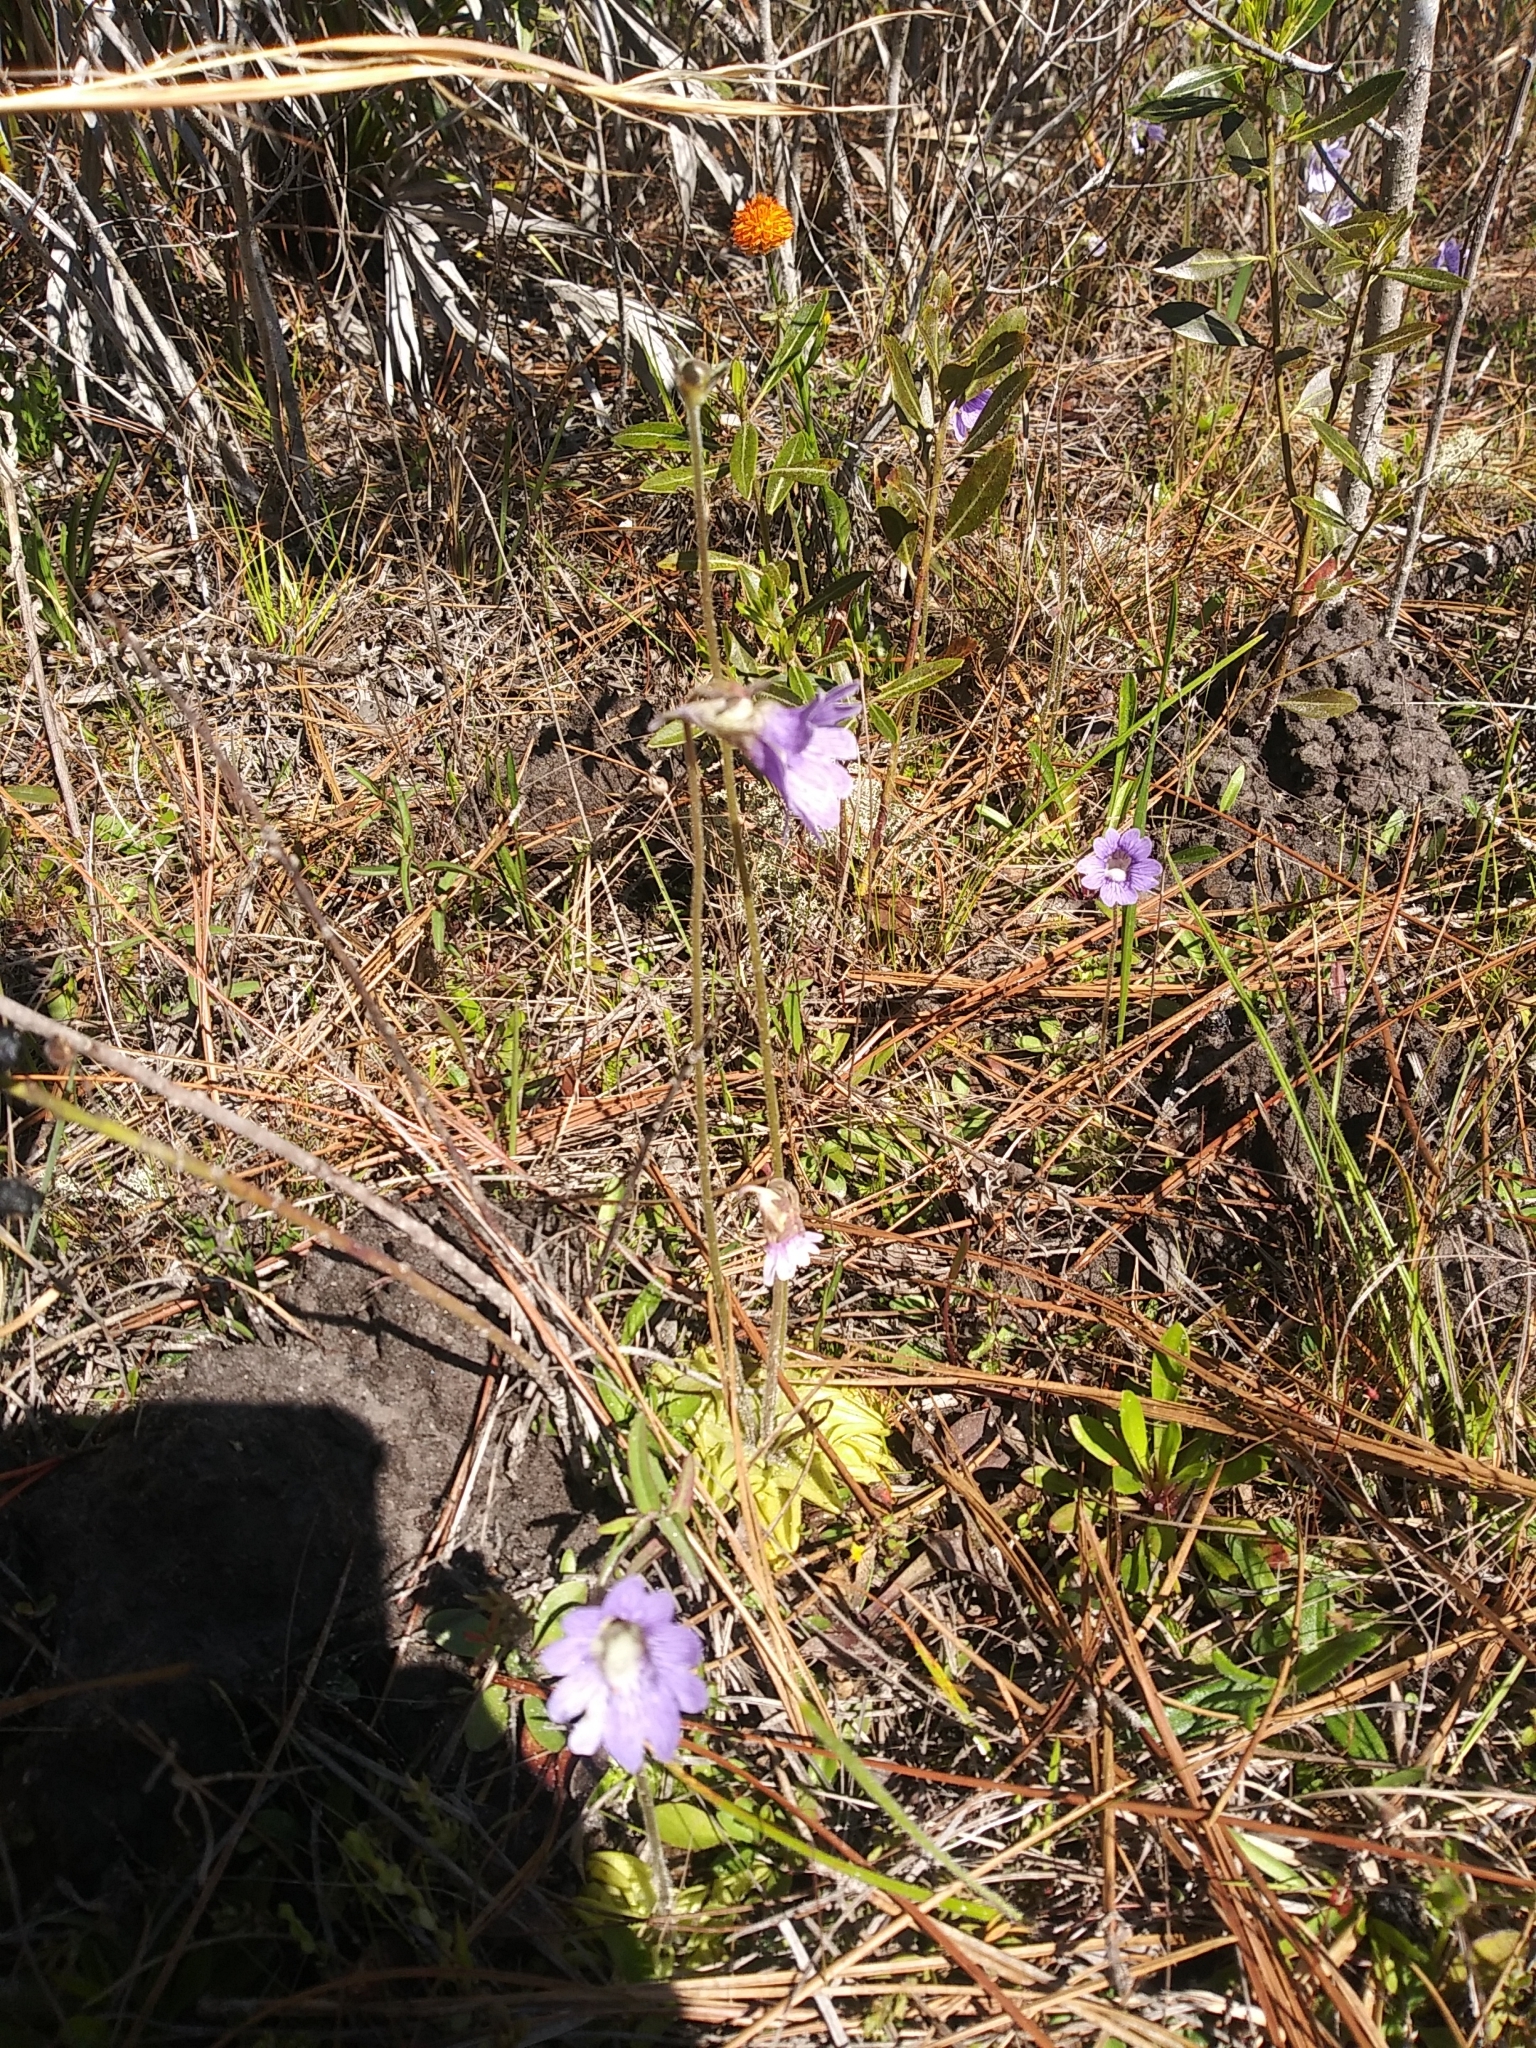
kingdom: Plantae
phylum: Tracheophyta
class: Magnoliopsida
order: Lamiales
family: Lentibulariaceae
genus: Pinguicula
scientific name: Pinguicula caerulea
